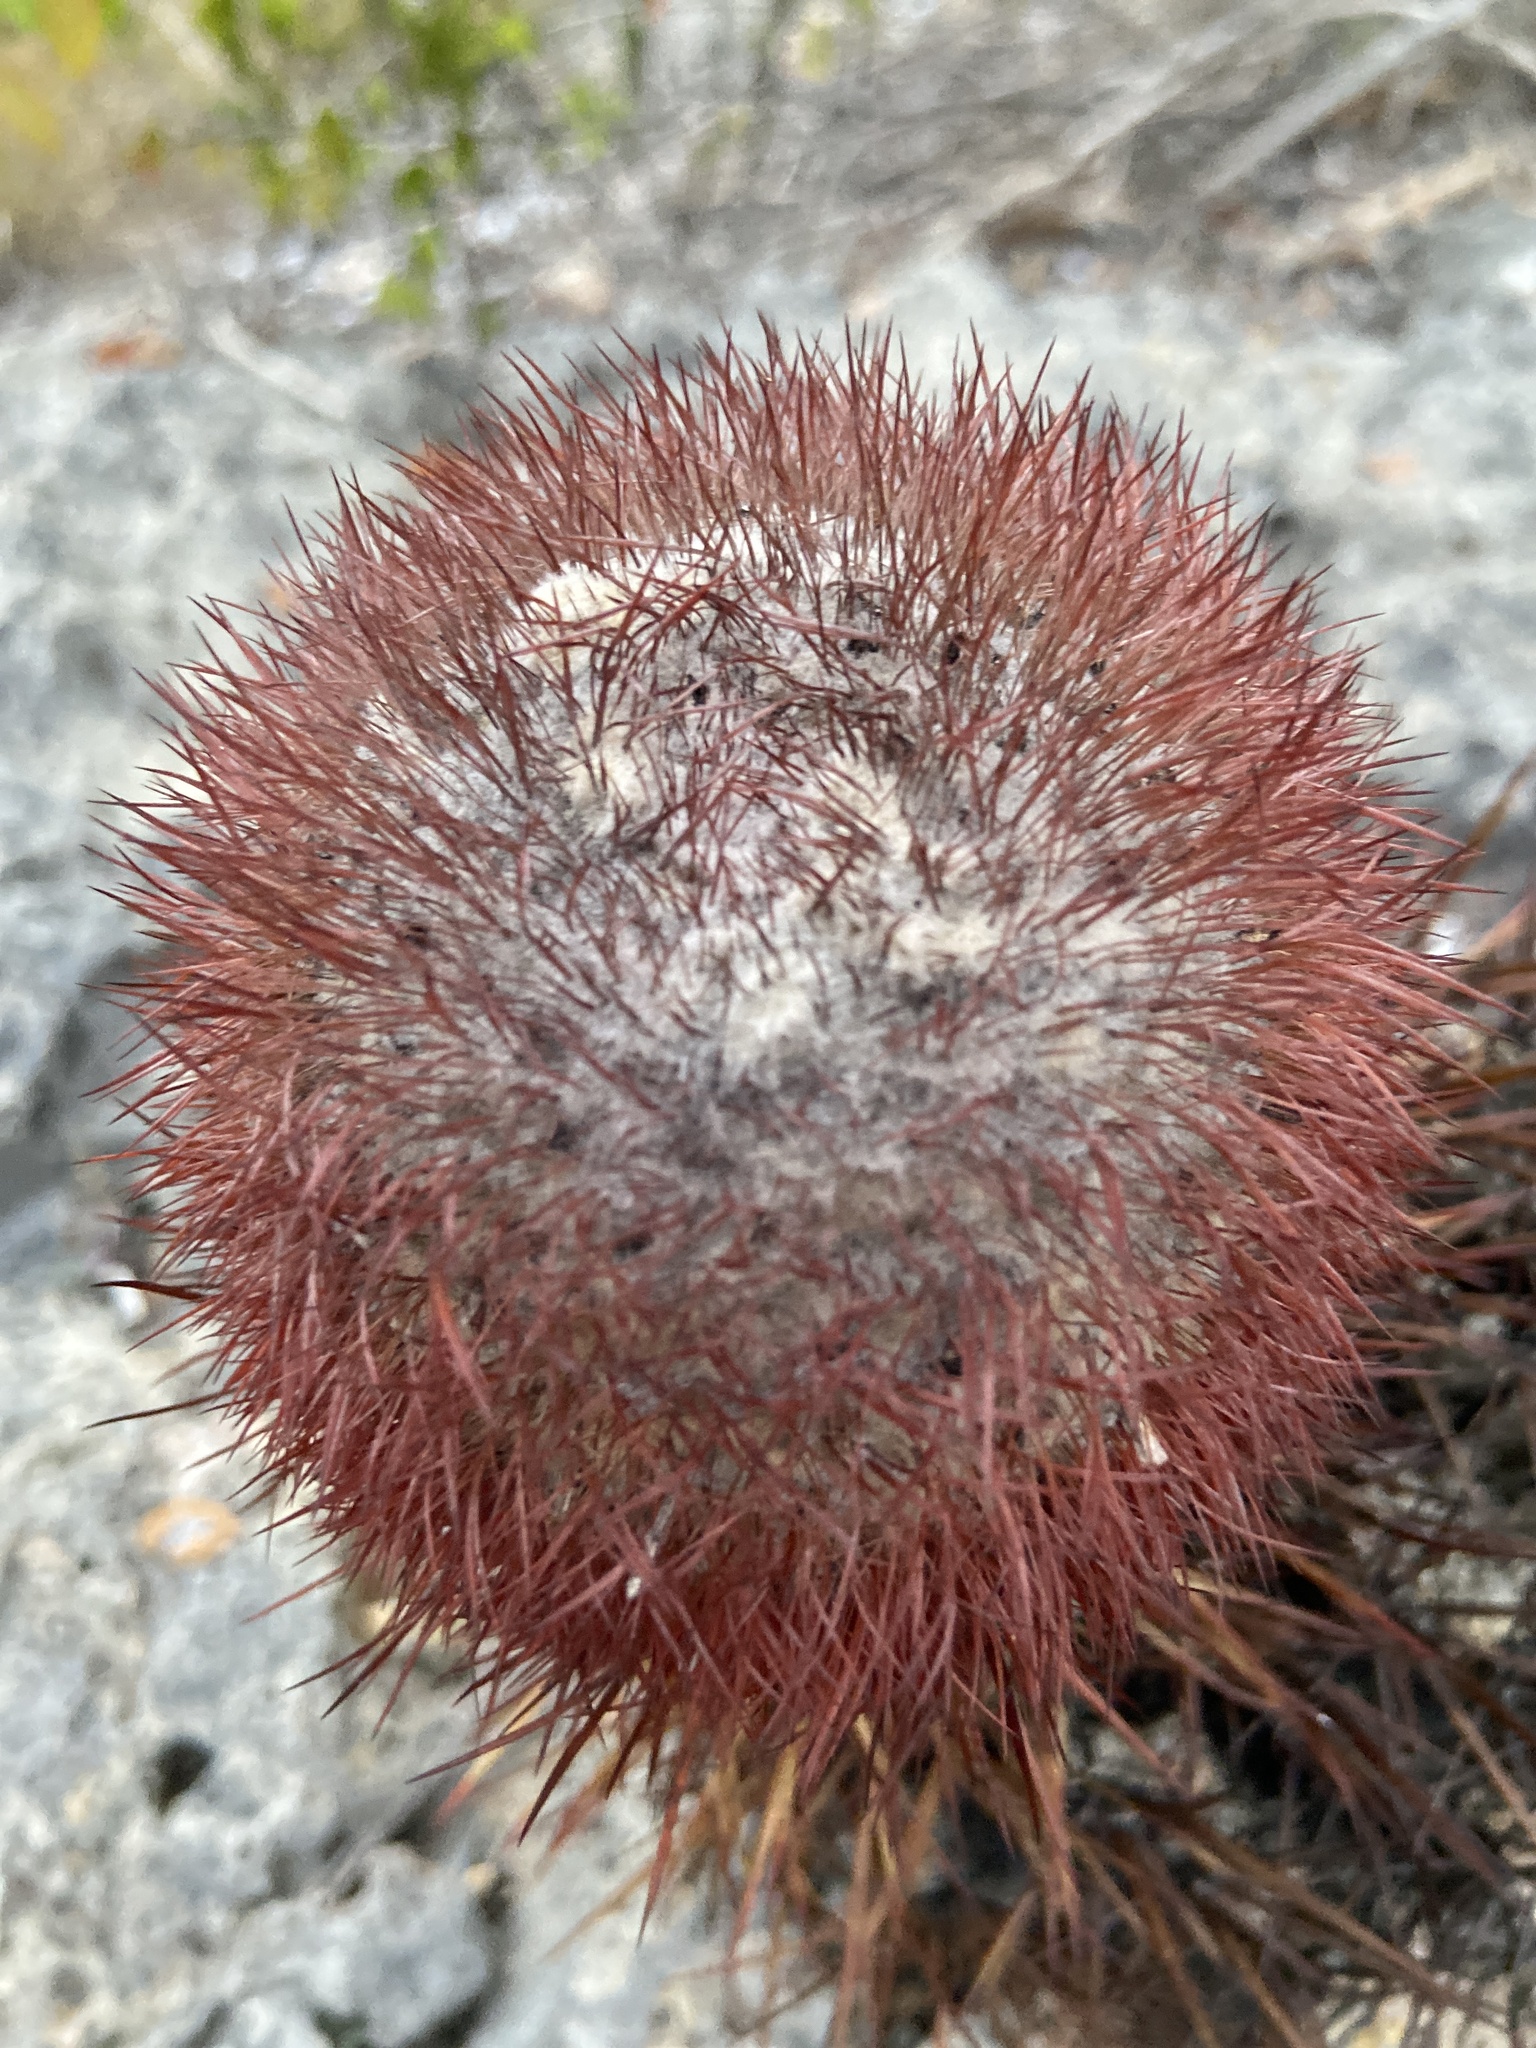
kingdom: Plantae
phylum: Tracheophyta
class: Magnoliopsida
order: Caryophyllales
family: Cactaceae
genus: Melocactus
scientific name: Melocactus intortus
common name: Barrel cactus
